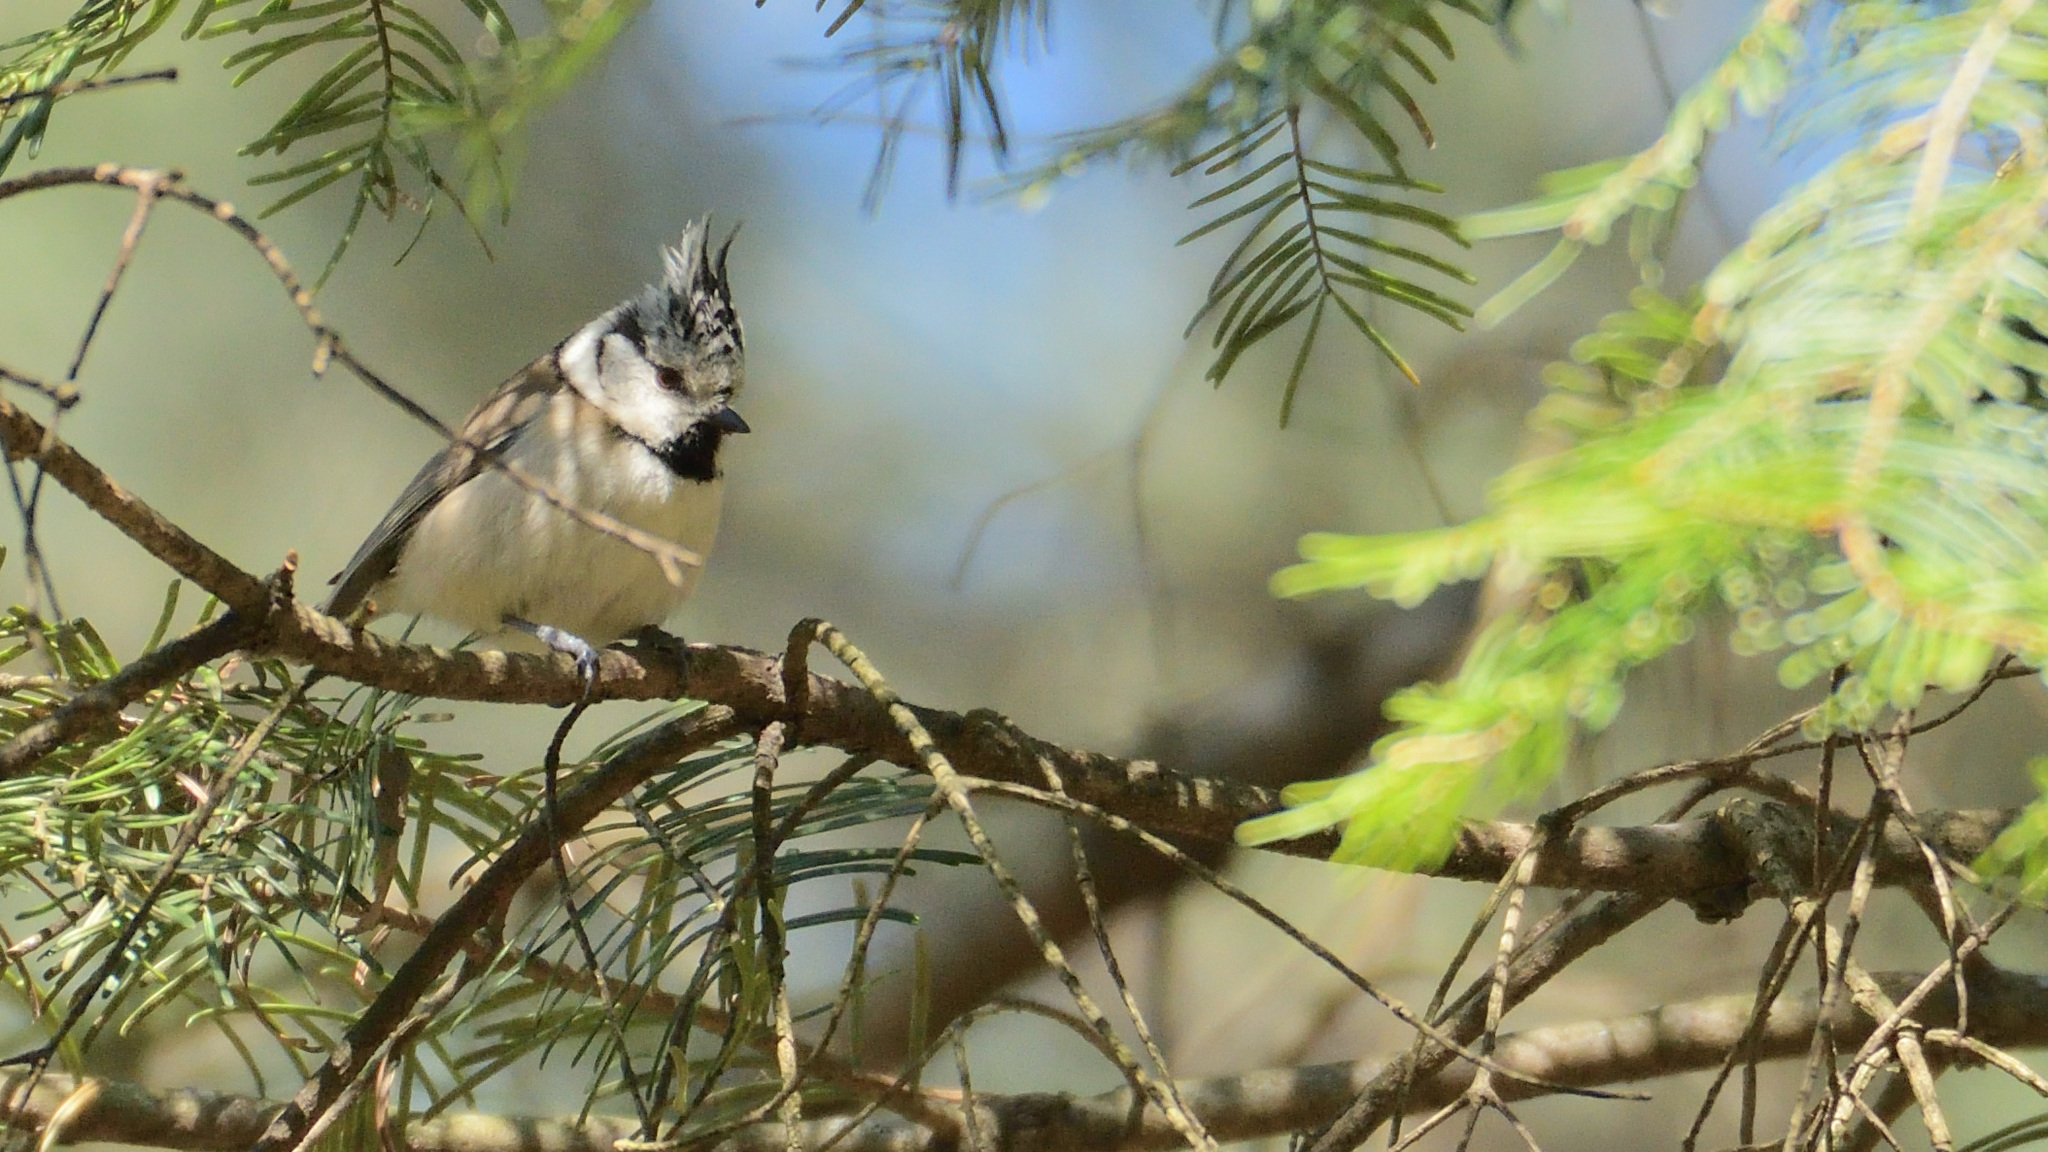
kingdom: Animalia
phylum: Chordata
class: Aves
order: Passeriformes
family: Paridae
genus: Lophophanes
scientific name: Lophophanes cristatus
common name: European crested tit
